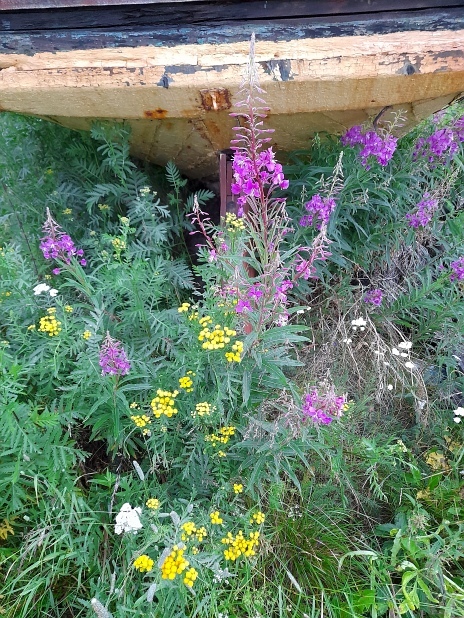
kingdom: Plantae
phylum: Tracheophyta
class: Magnoliopsida
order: Asterales
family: Asteraceae
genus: Tanacetum
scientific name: Tanacetum vulgare
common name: Common tansy
